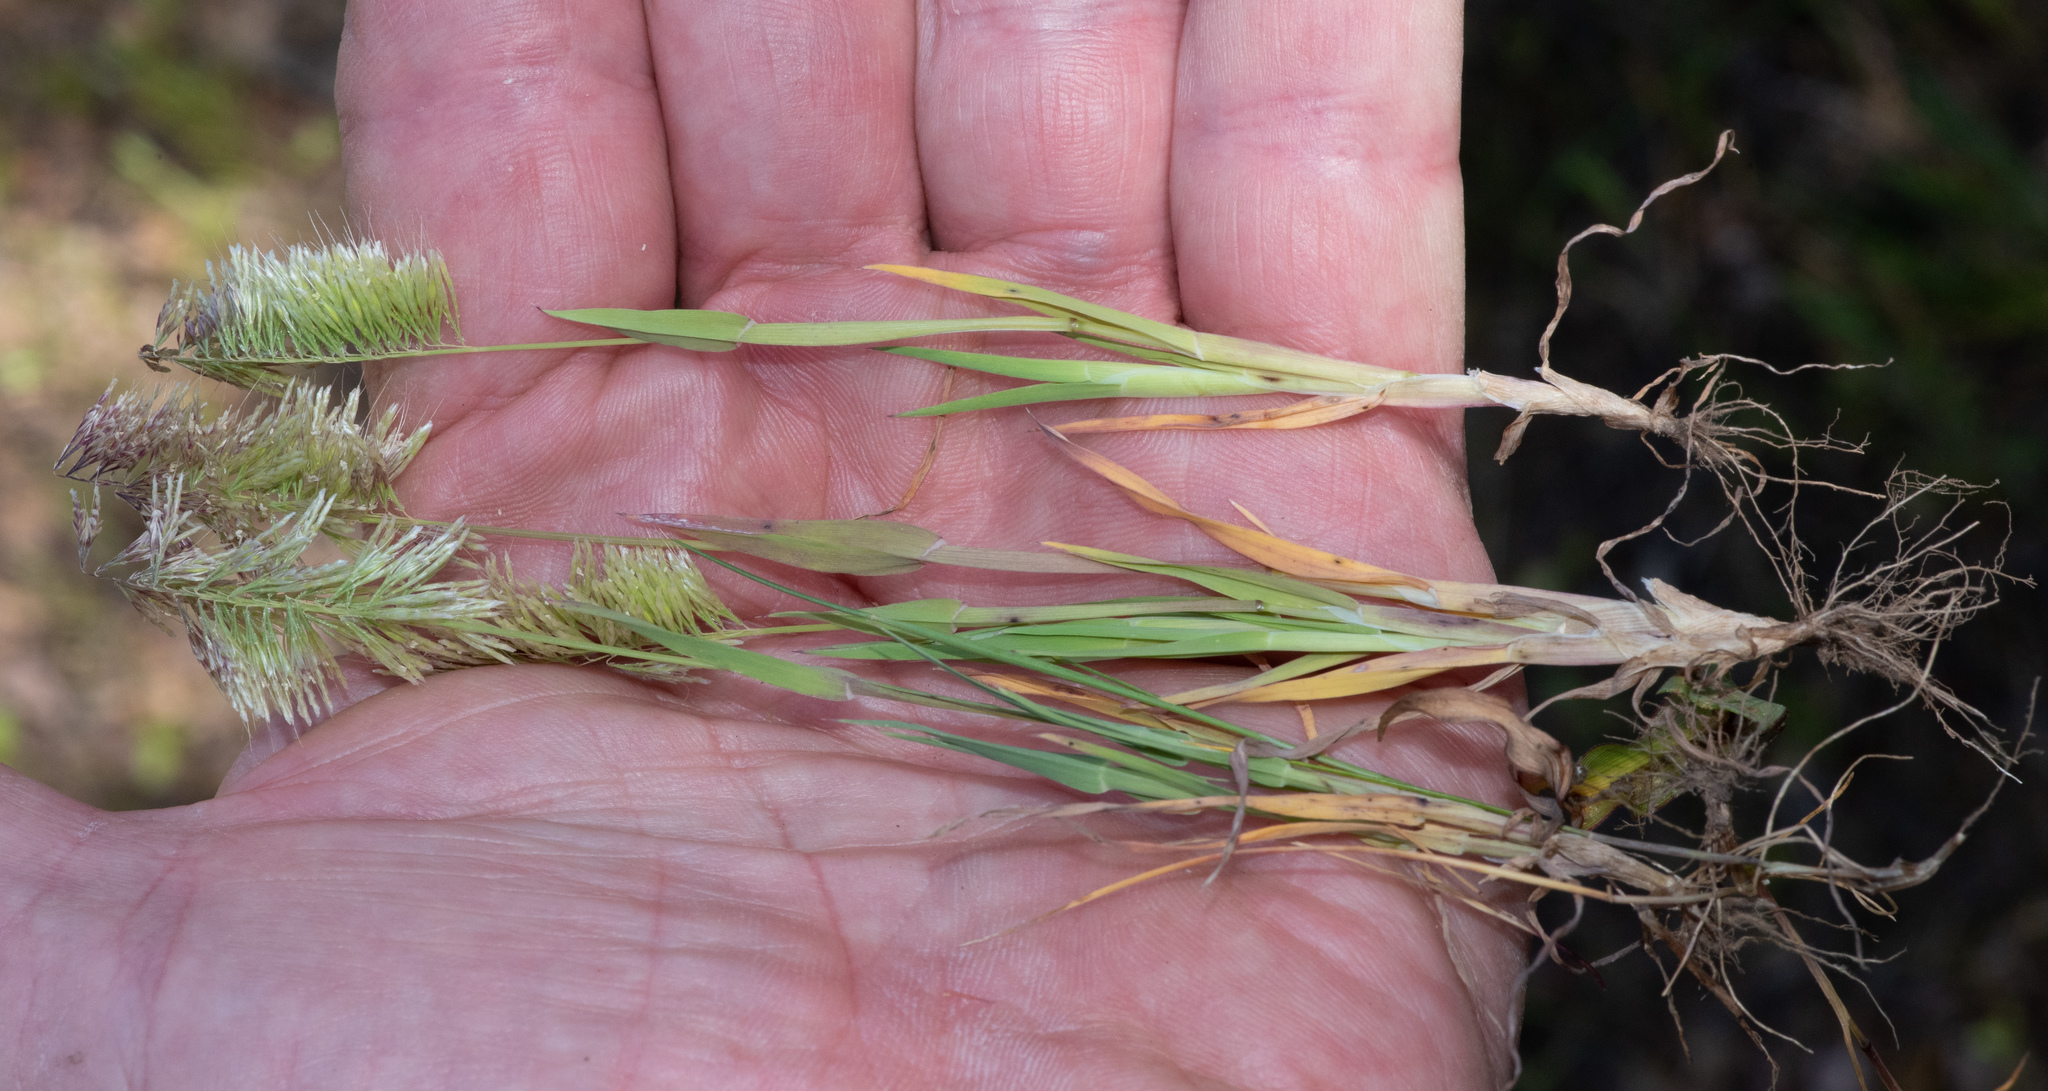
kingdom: Plantae
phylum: Tracheophyta
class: Liliopsida
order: Poales
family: Poaceae
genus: Lamarckia
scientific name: Lamarckia aurea
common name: Golden dog's-tail
